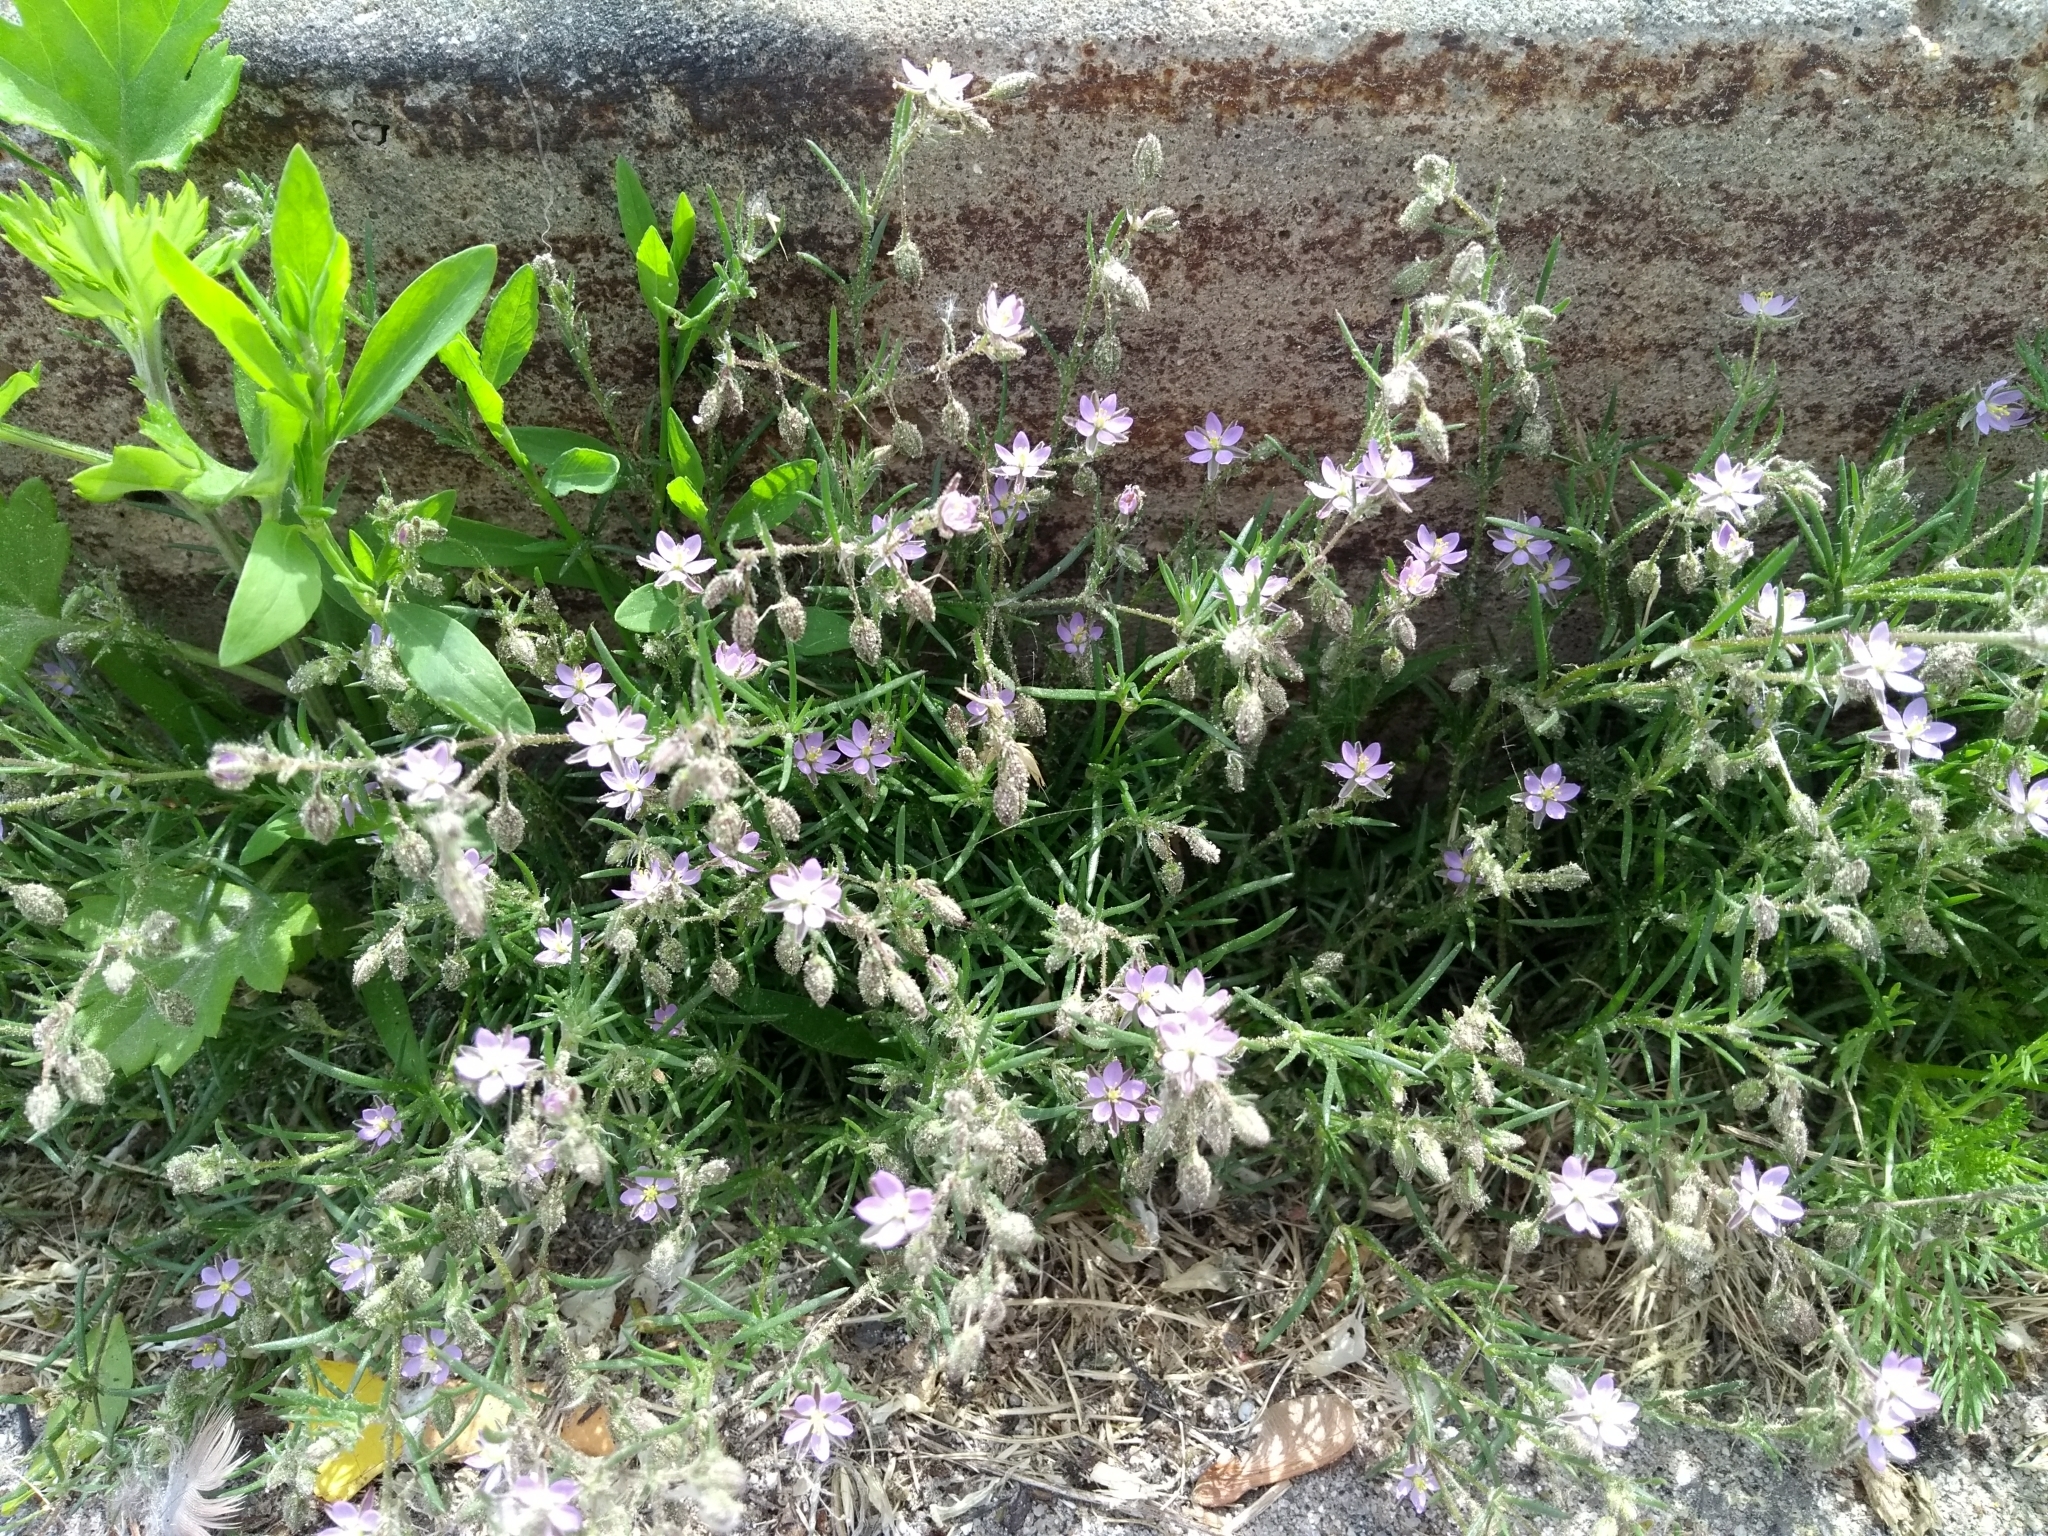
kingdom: Plantae
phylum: Tracheophyta
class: Magnoliopsida
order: Caryophyllales
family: Caryophyllaceae
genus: Spergularia
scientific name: Spergularia rubra
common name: Red sand-spurrey
